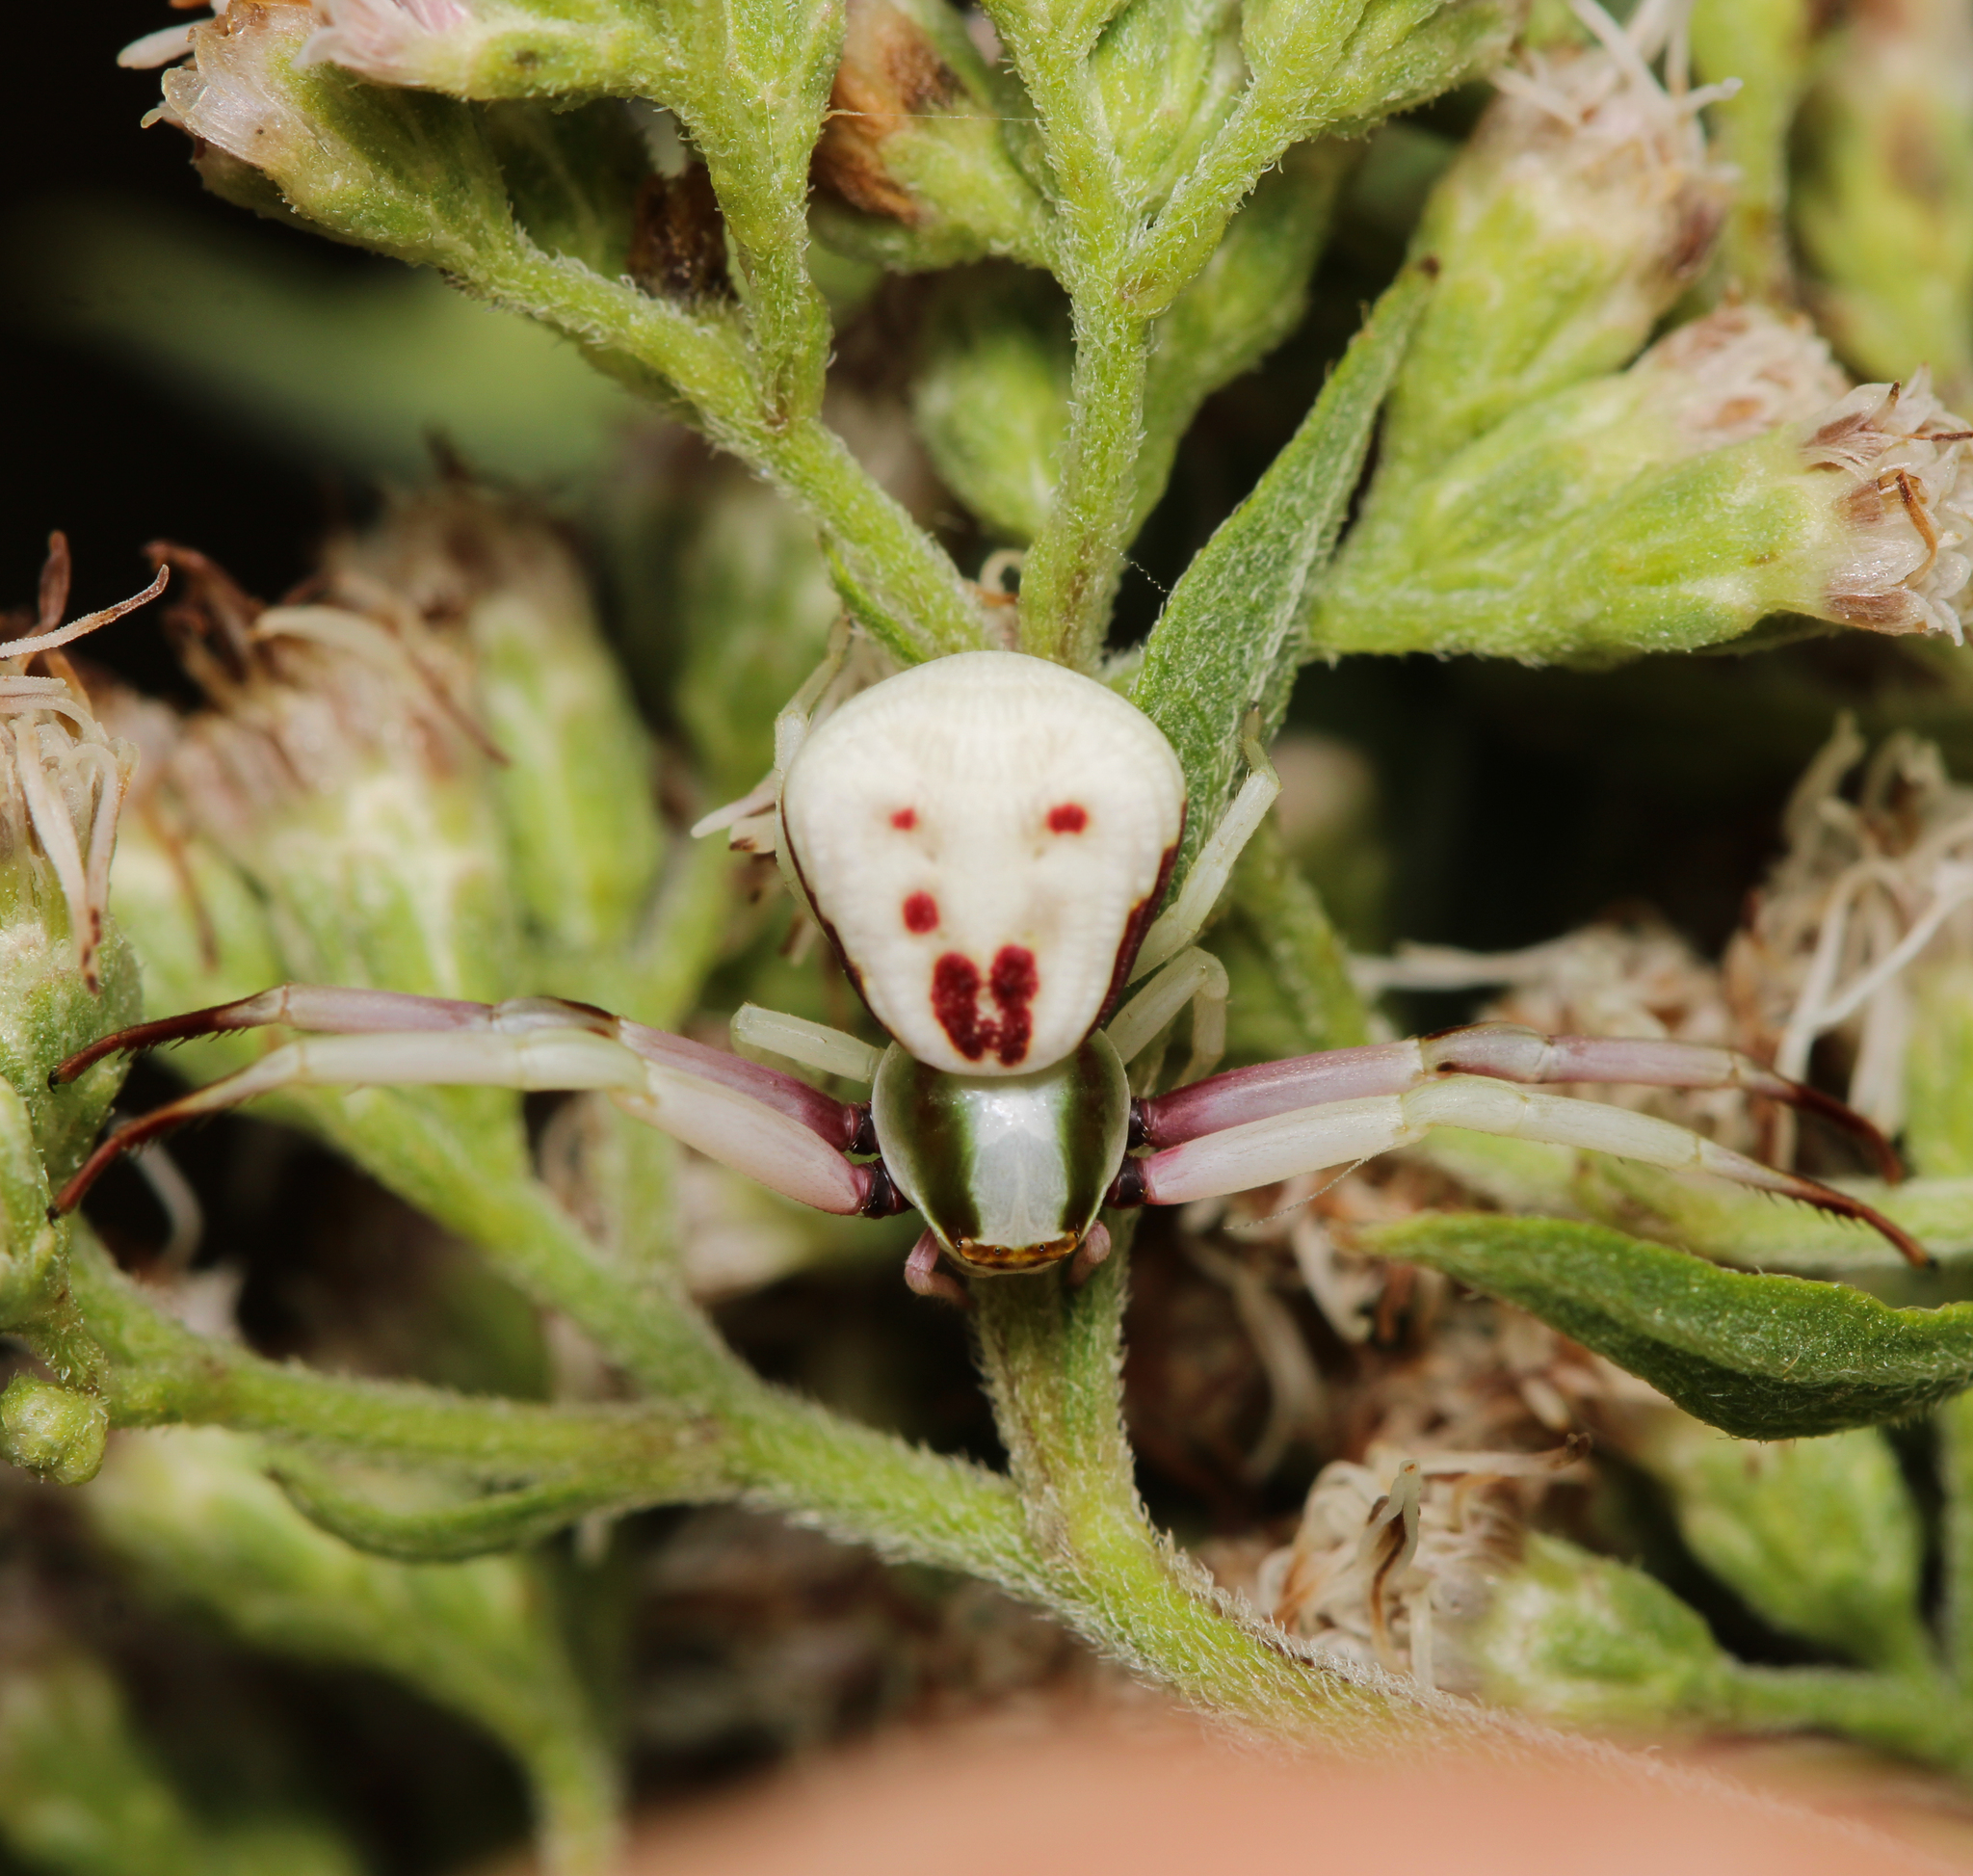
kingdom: Animalia
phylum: Arthropoda
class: Arachnida
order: Araneae
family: Thomisidae
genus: Misumenoides
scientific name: Misumenoides formosipes
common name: White-banded crab spider
